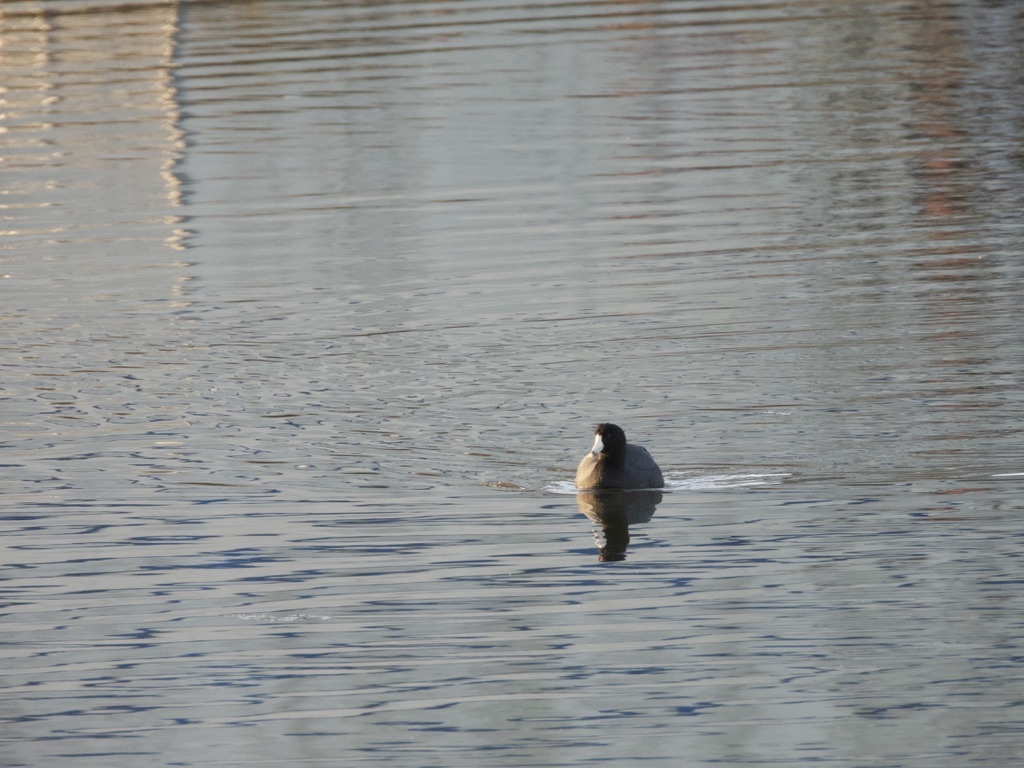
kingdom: Animalia
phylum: Chordata
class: Aves
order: Gruiformes
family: Rallidae
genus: Fulica
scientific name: Fulica americana
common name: American coot
